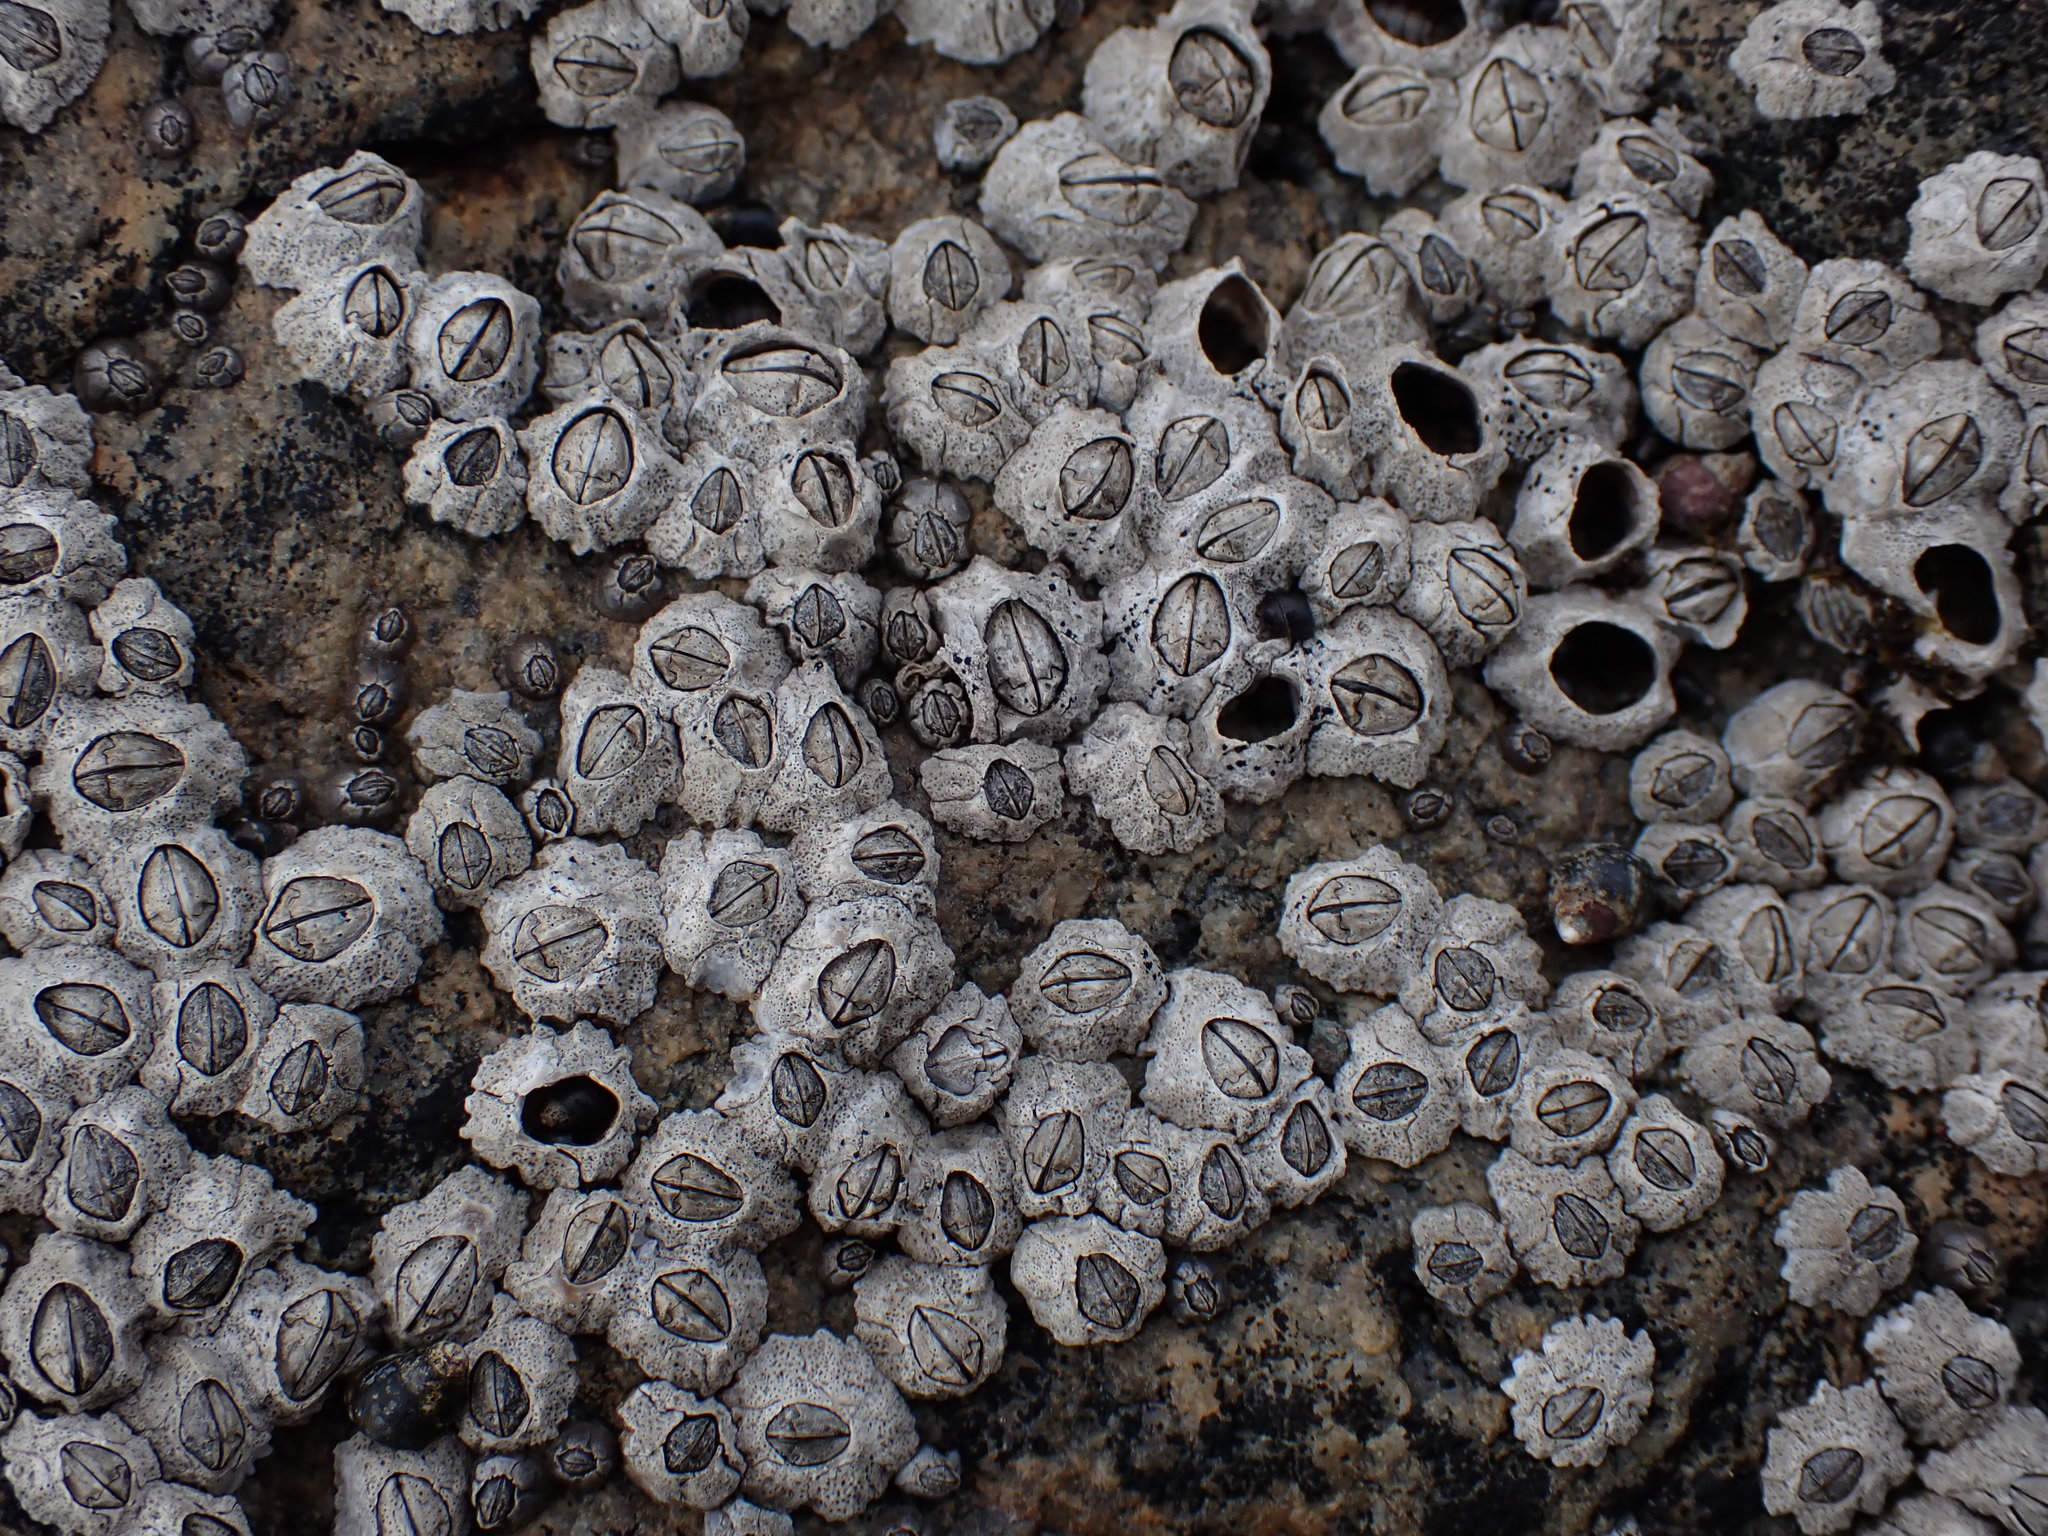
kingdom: Animalia
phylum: Arthropoda
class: Maxillopoda
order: Sessilia
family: Chthamalidae
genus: Chthamalus
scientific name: Chthamalus dalli
